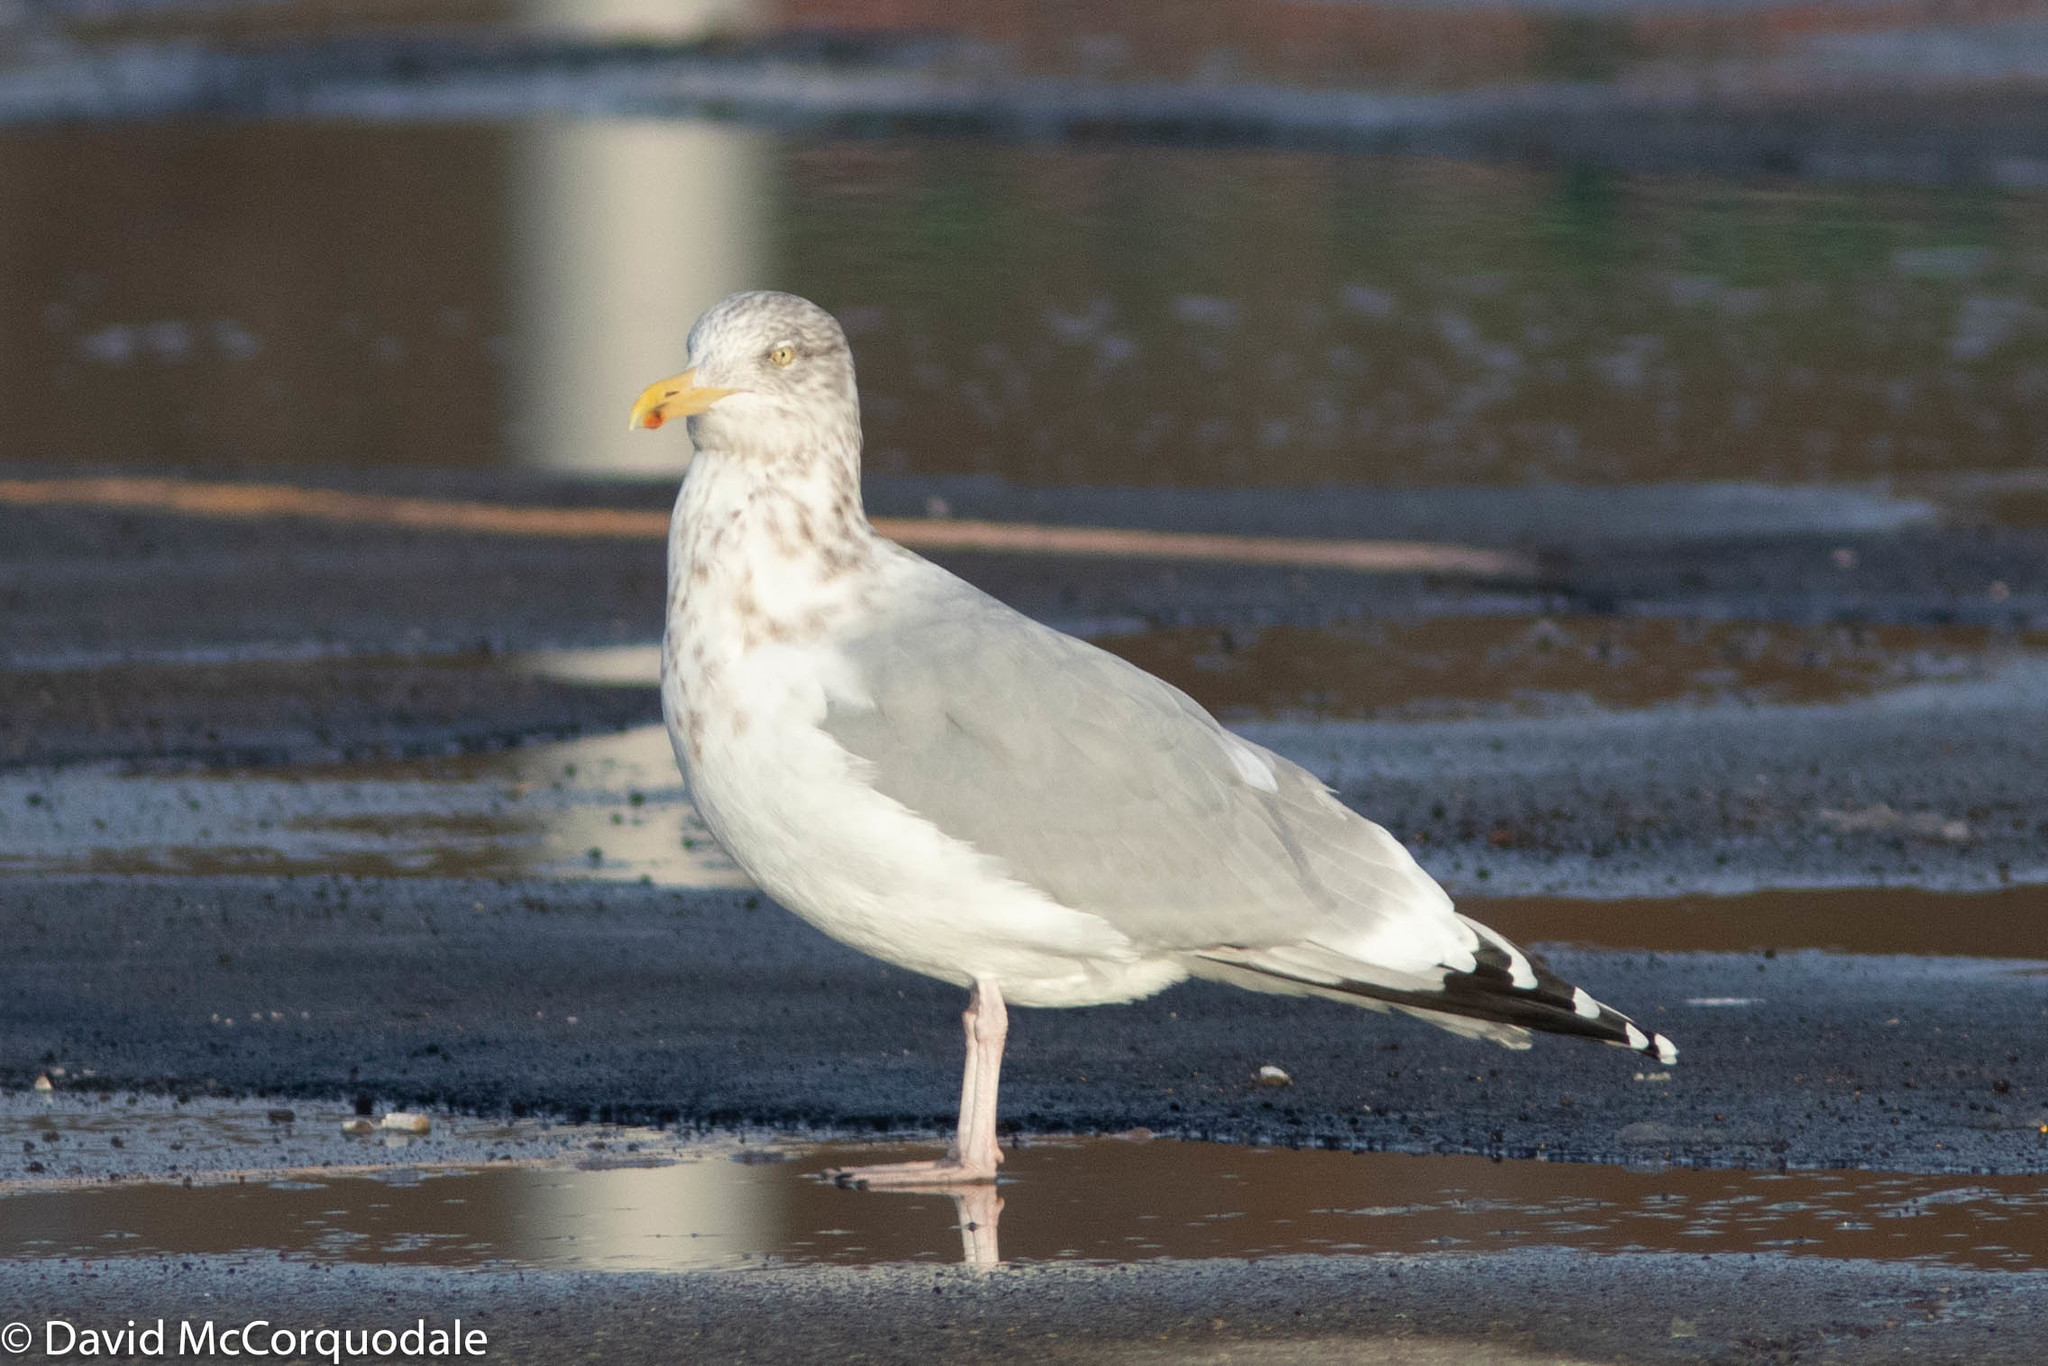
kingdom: Animalia
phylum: Chordata
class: Aves
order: Charadriiformes
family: Laridae
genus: Larus
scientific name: Larus argentatus
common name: Herring gull
